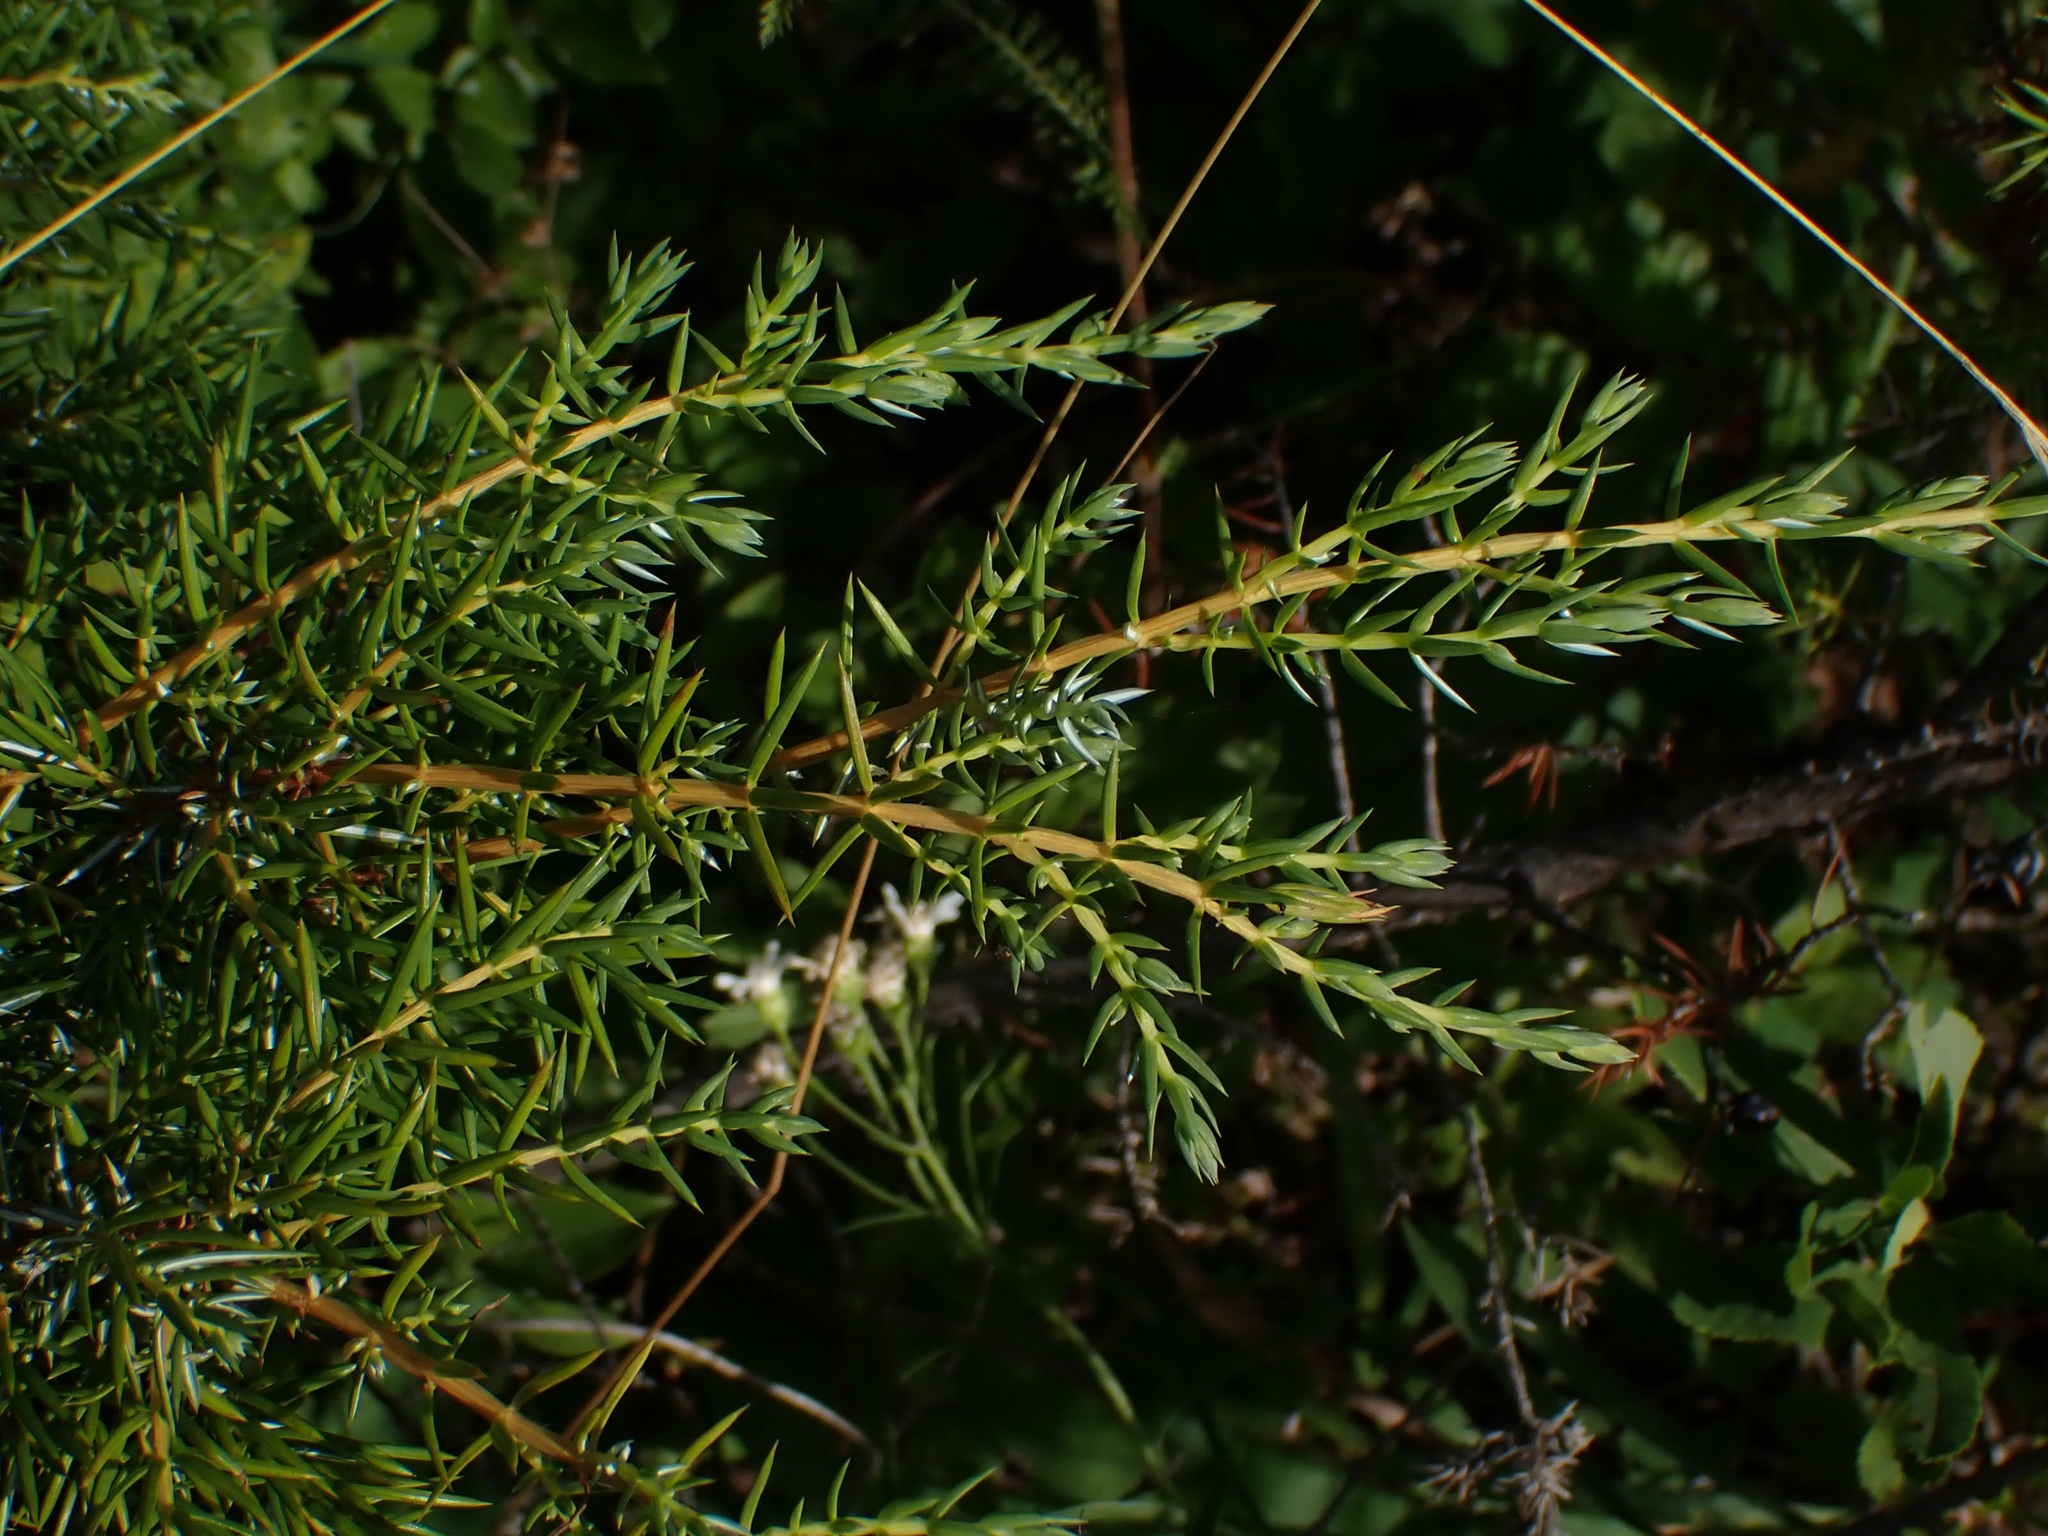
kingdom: Plantae
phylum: Tracheophyta
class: Pinopsida
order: Pinales
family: Cupressaceae
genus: Juniperus
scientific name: Juniperus communis
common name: Common juniper
